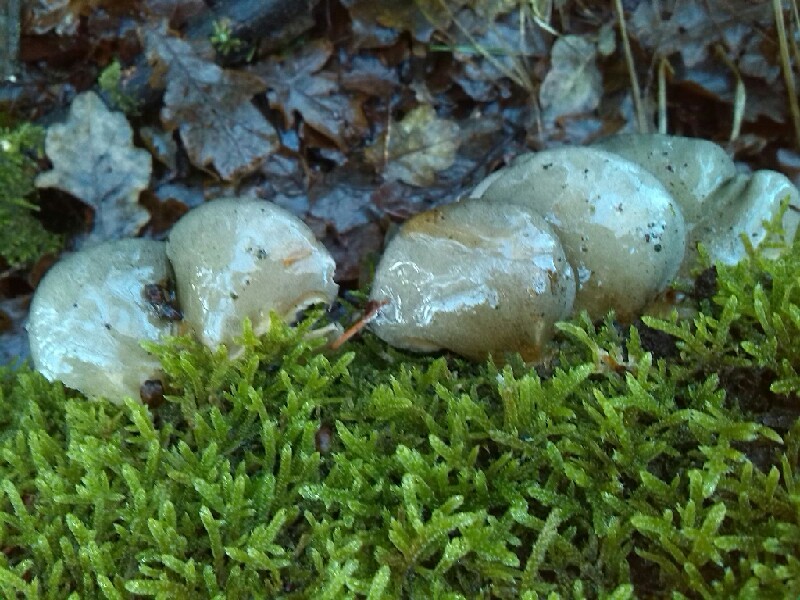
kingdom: Fungi
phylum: Basidiomycota
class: Agaricomycetes
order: Agaricales
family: Sarcomyxaceae
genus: Sarcomyxa
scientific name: Sarcomyxa serotina
